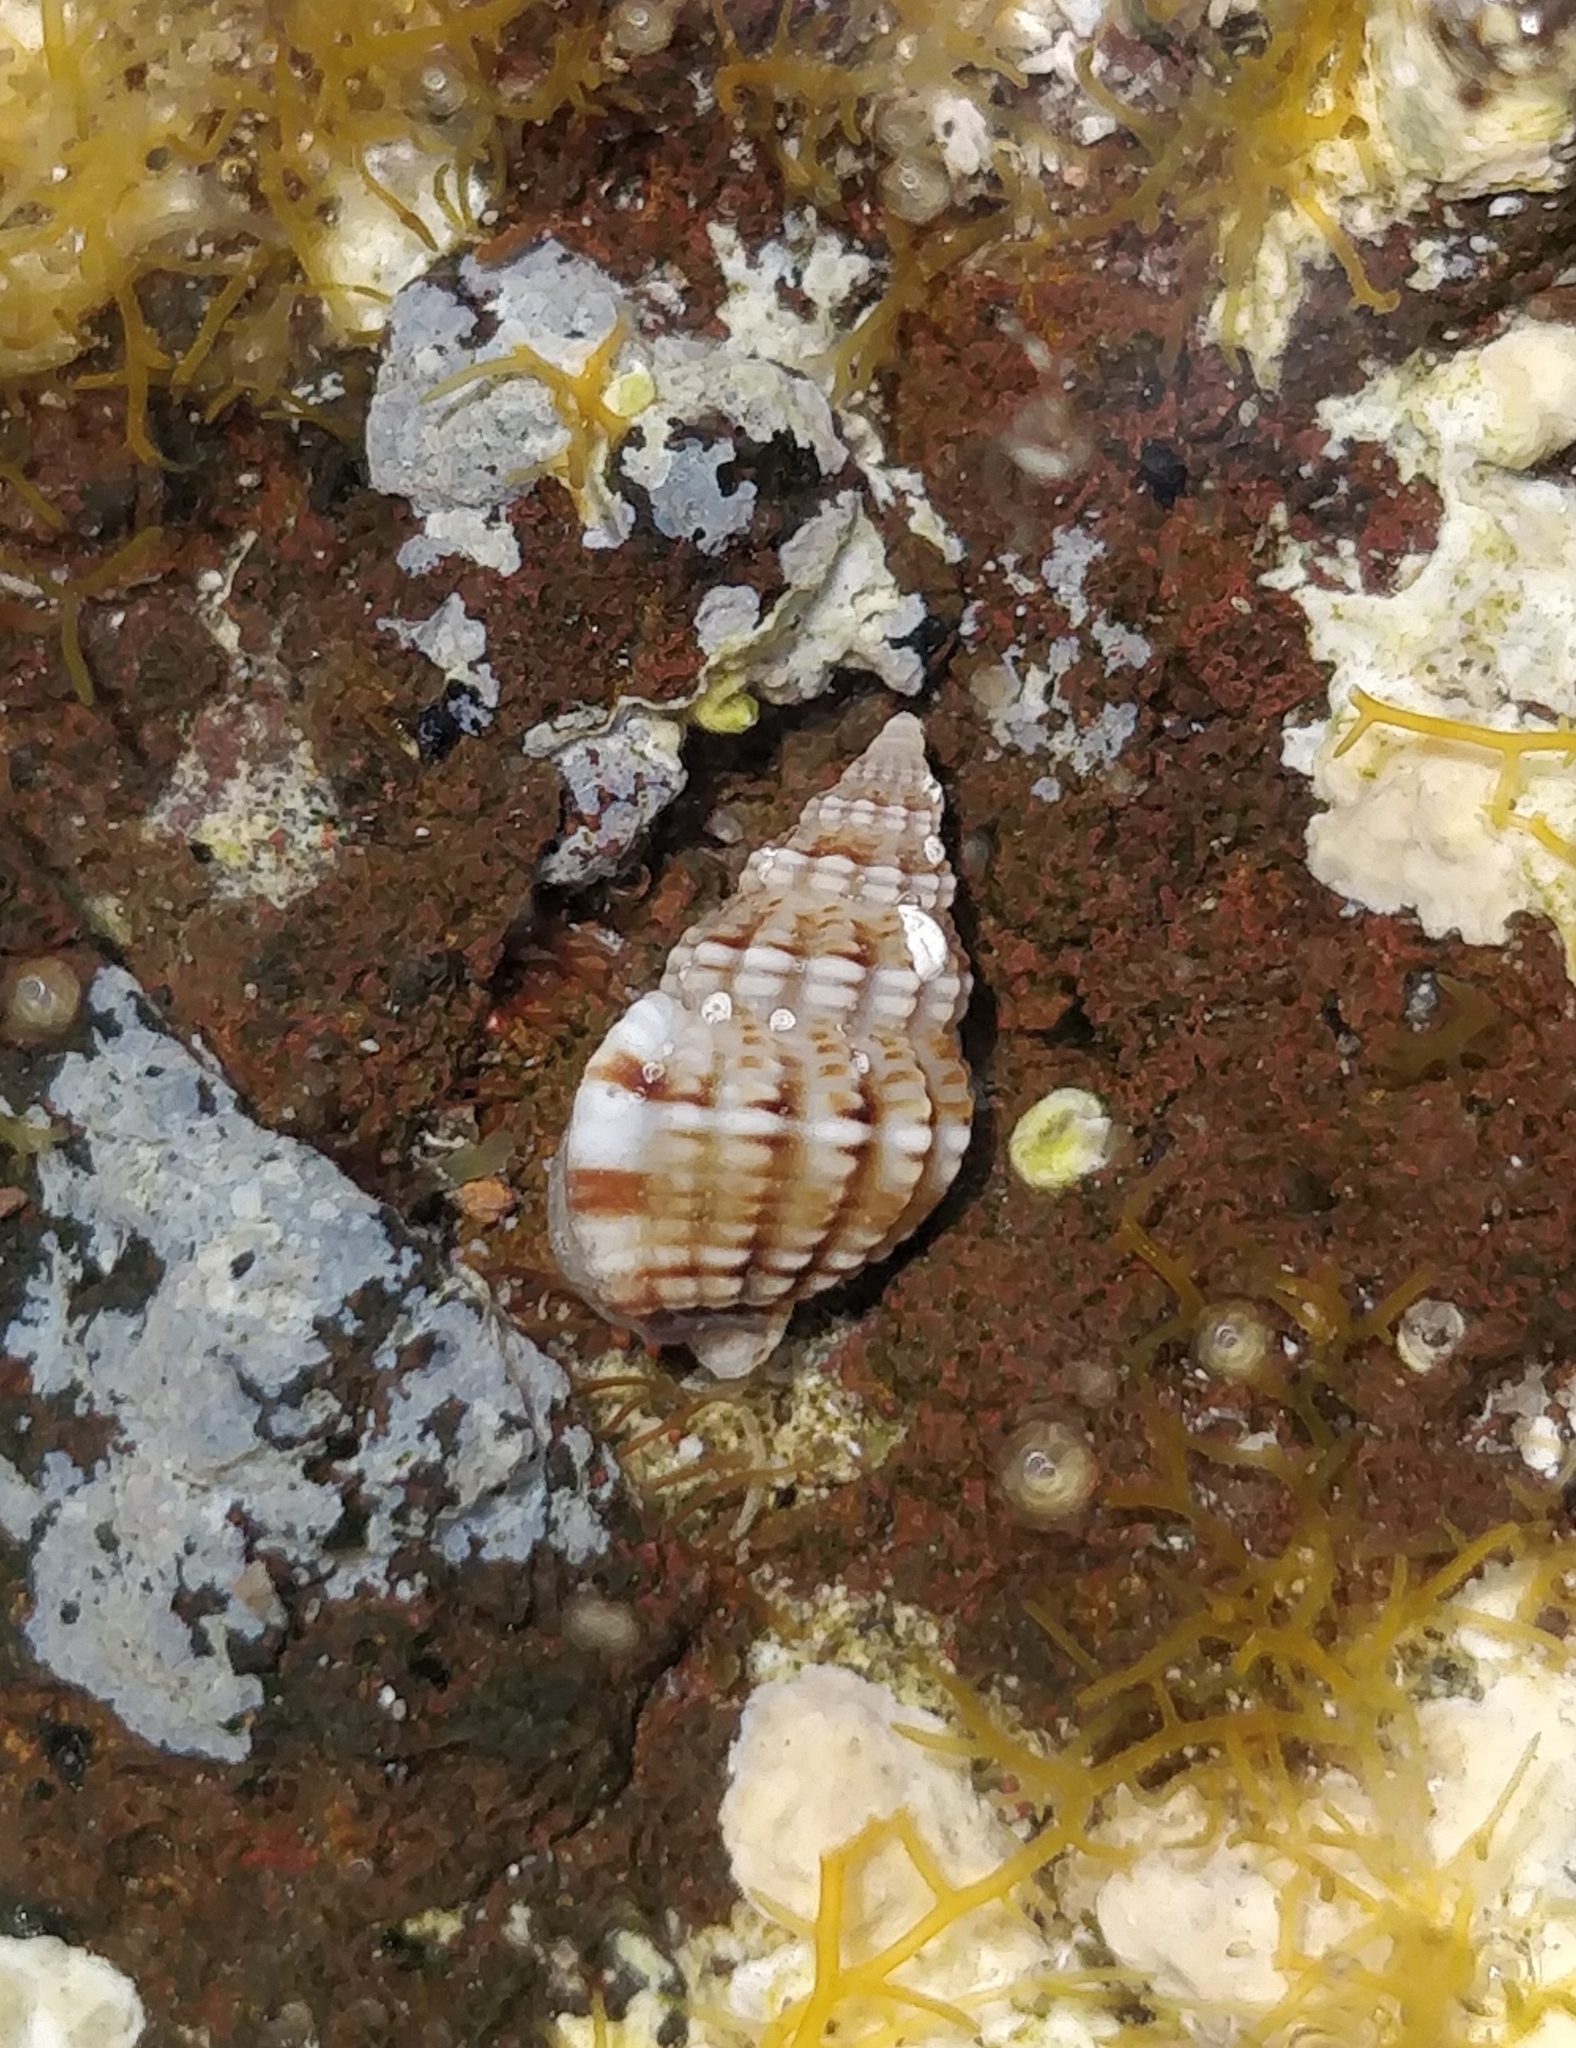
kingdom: Animalia
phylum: Mollusca
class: Gastropoda
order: Neogastropoda
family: Nassariidae
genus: Tritia
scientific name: Tritia incrassata
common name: Thick-lipped dog whelk
